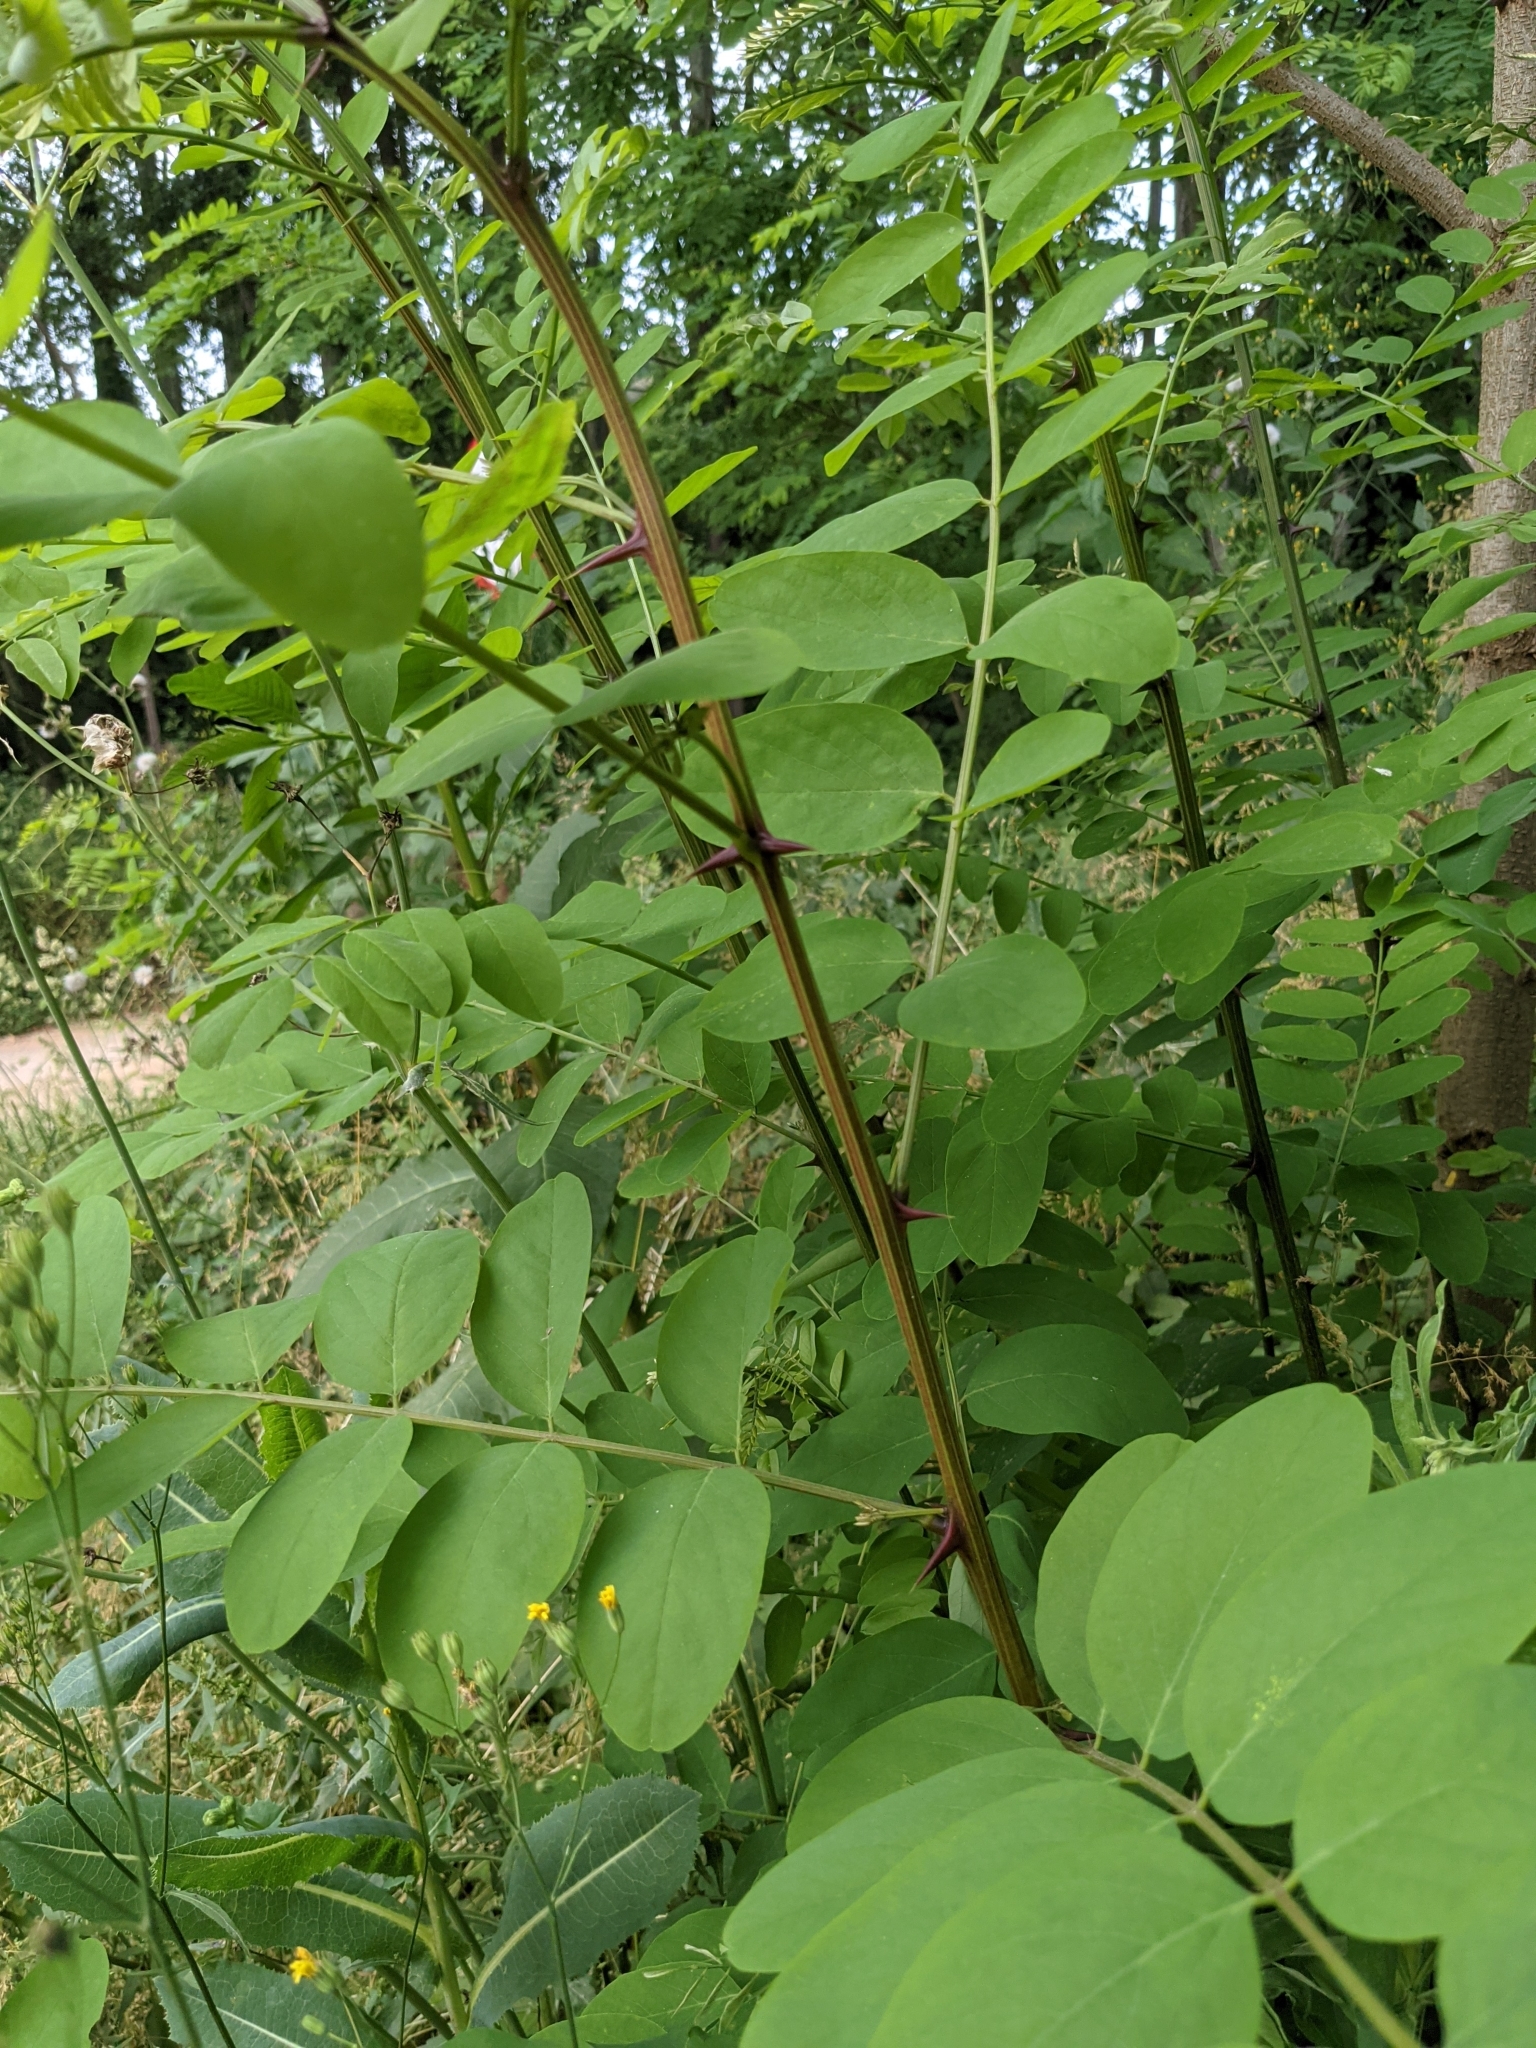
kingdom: Plantae
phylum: Tracheophyta
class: Magnoliopsida
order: Fabales
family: Fabaceae
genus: Robinia
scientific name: Robinia pseudoacacia
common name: Black locust
